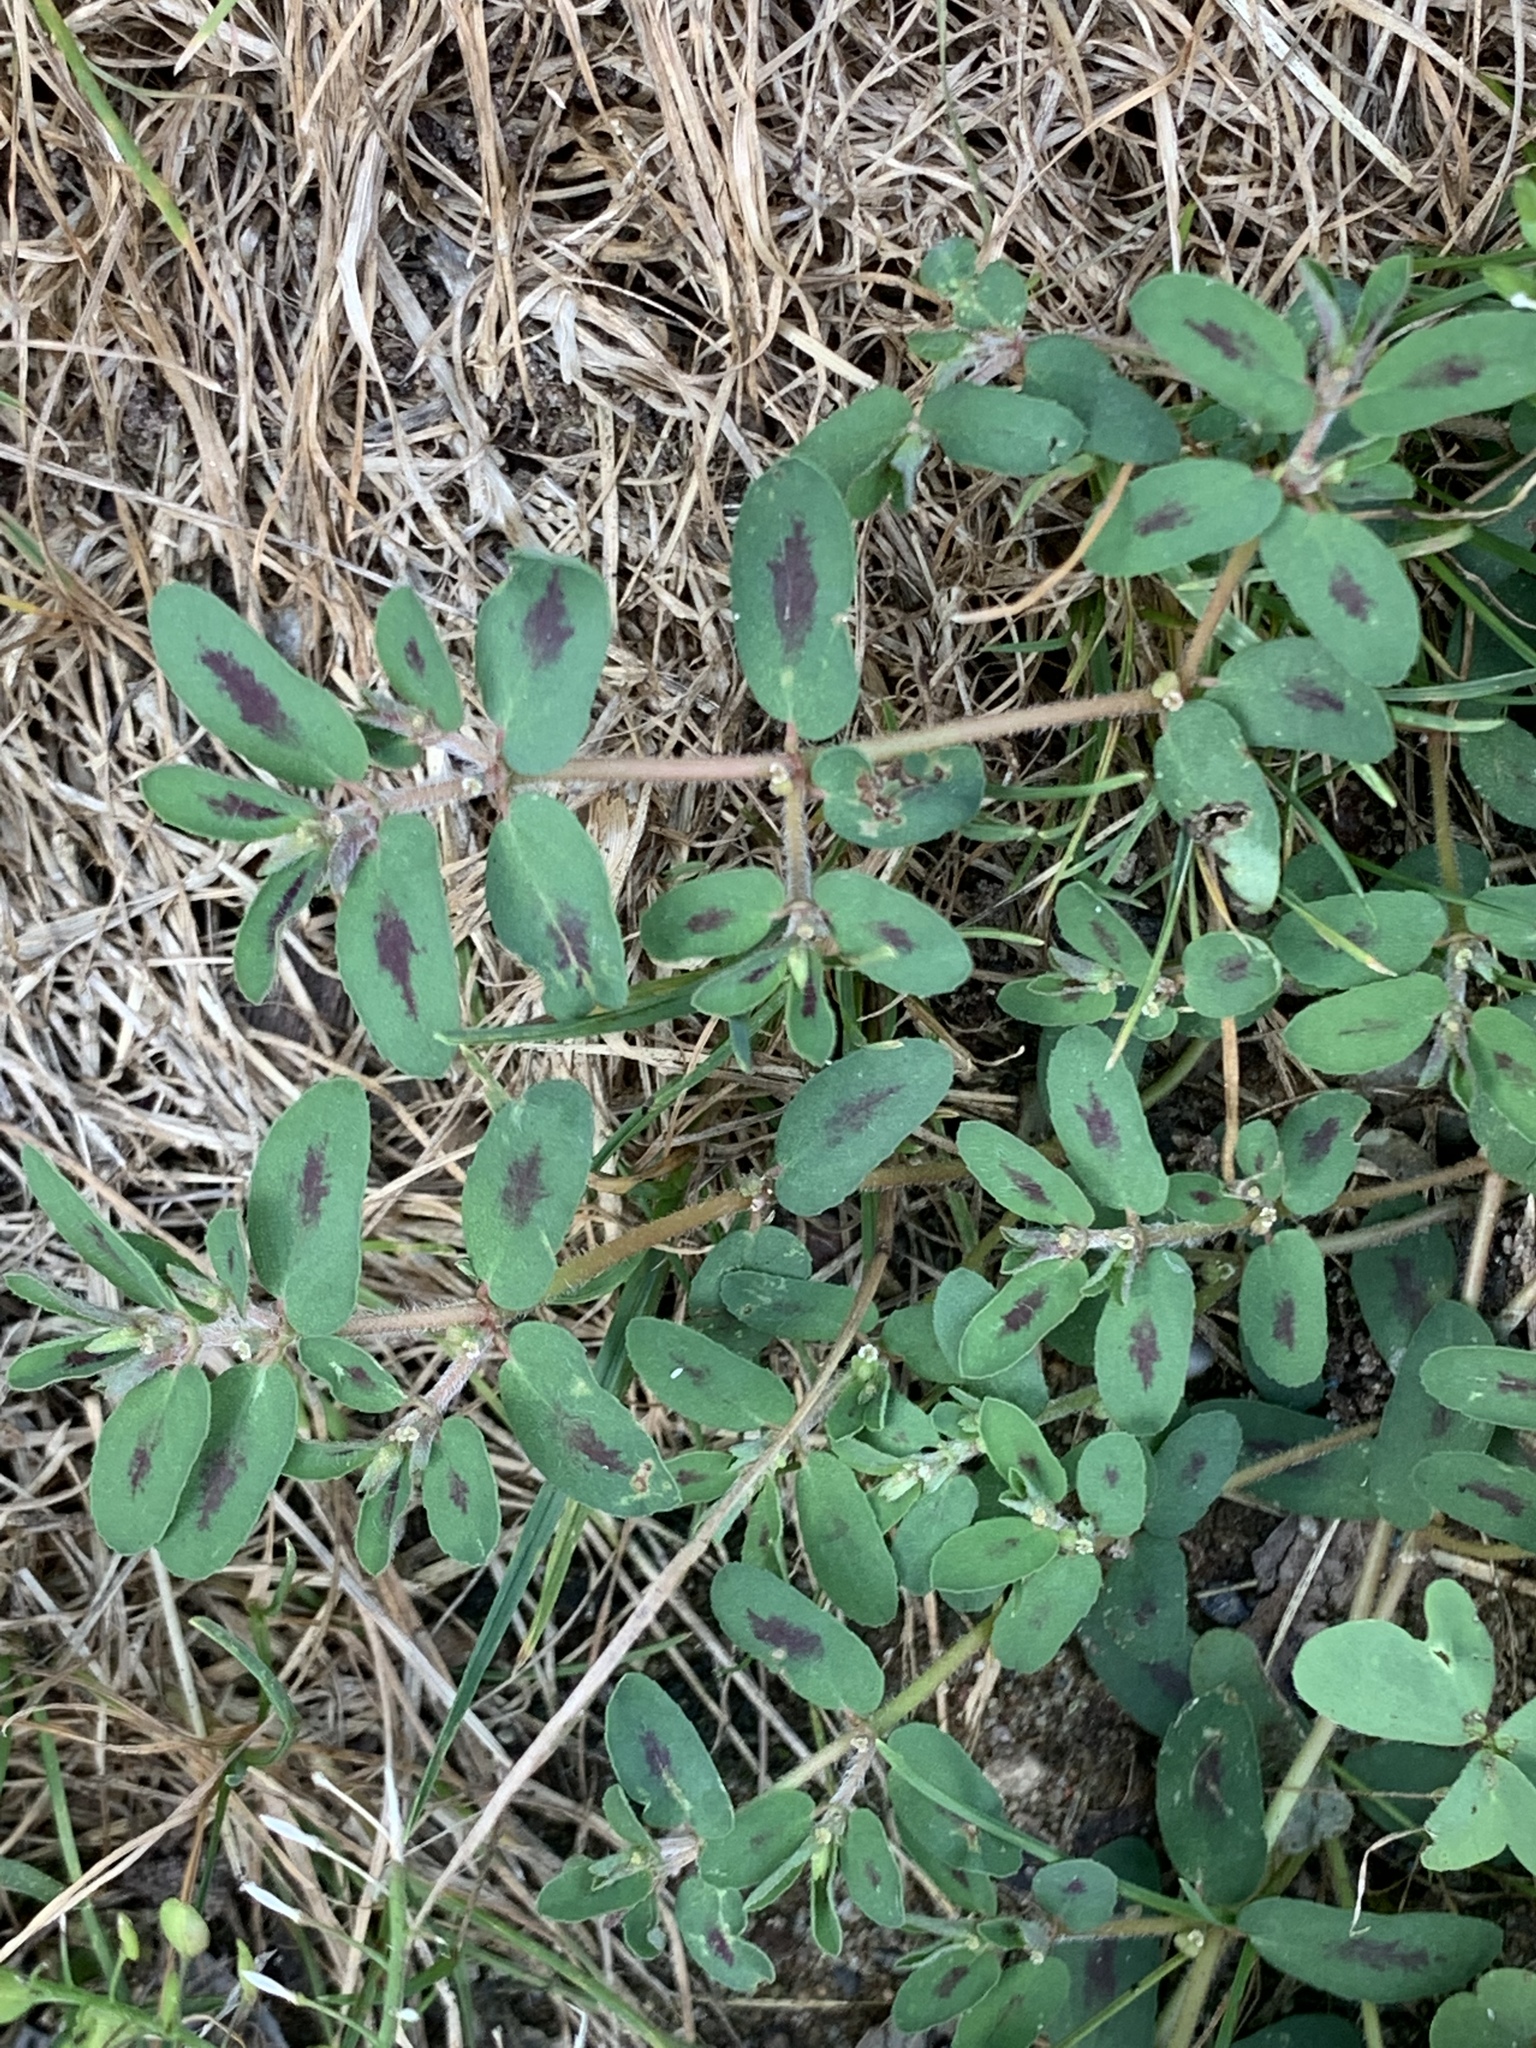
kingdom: Plantae
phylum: Tracheophyta
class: Magnoliopsida
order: Malpighiales
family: Euphorbiaceae
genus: Euphorbia
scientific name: Euphorbia maculata
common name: Spotted spurge
